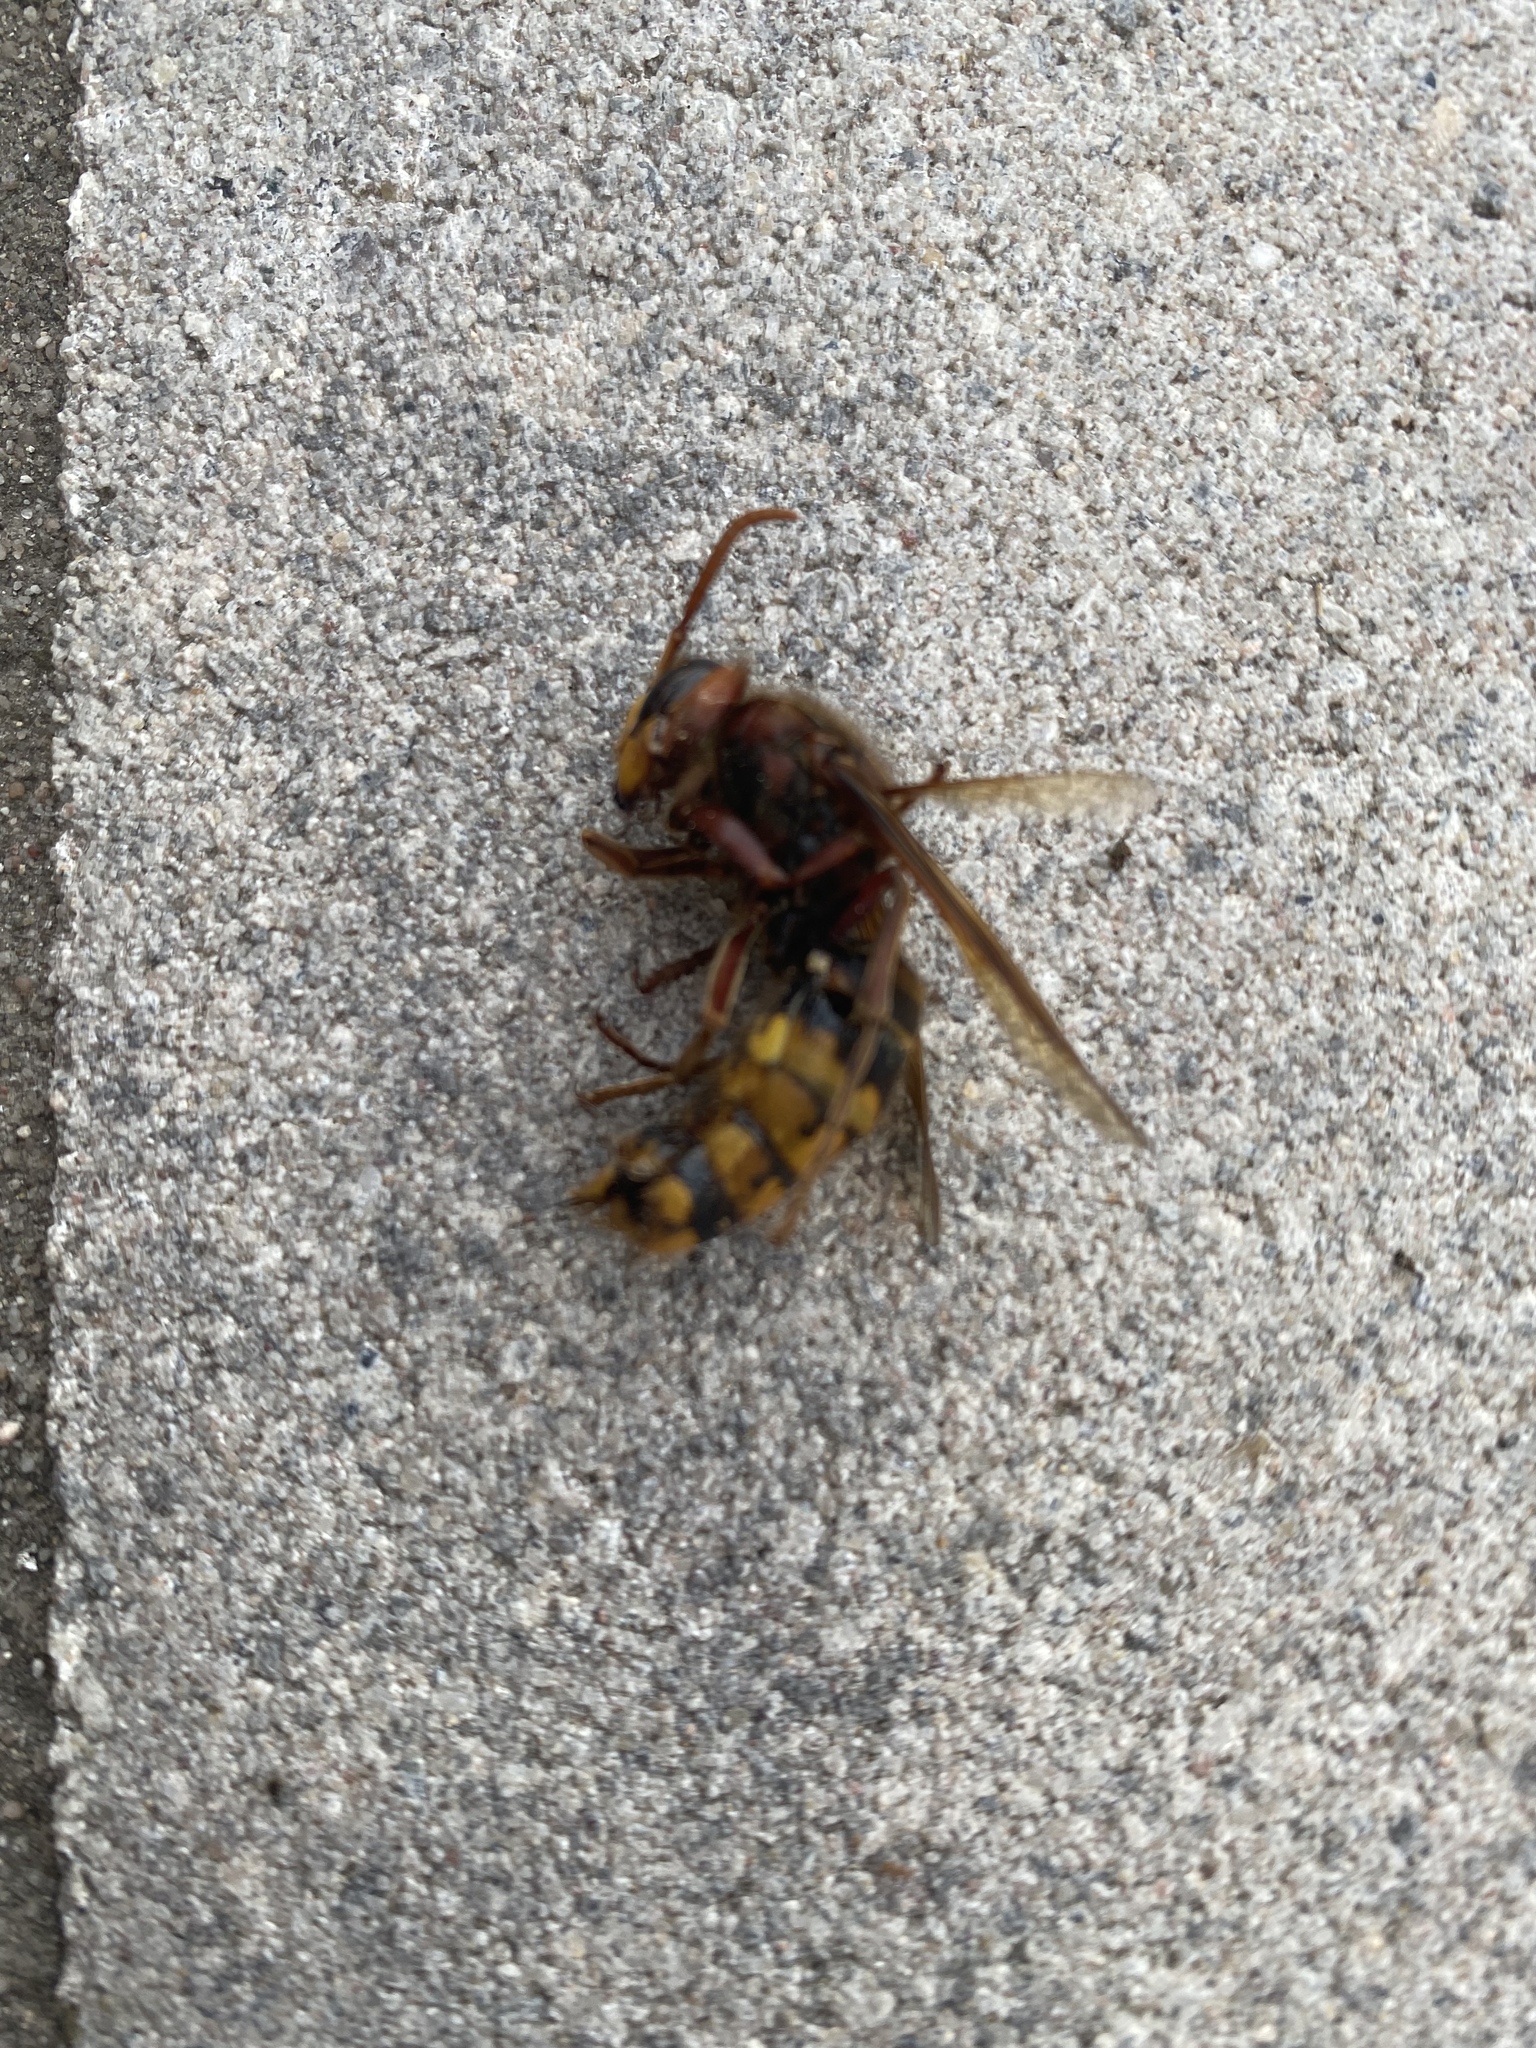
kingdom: Animalia
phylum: Arthropoda
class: Insecta
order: Hymenoptera
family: Vespidae
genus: Vespa
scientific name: Vespa crabro
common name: Hornet
